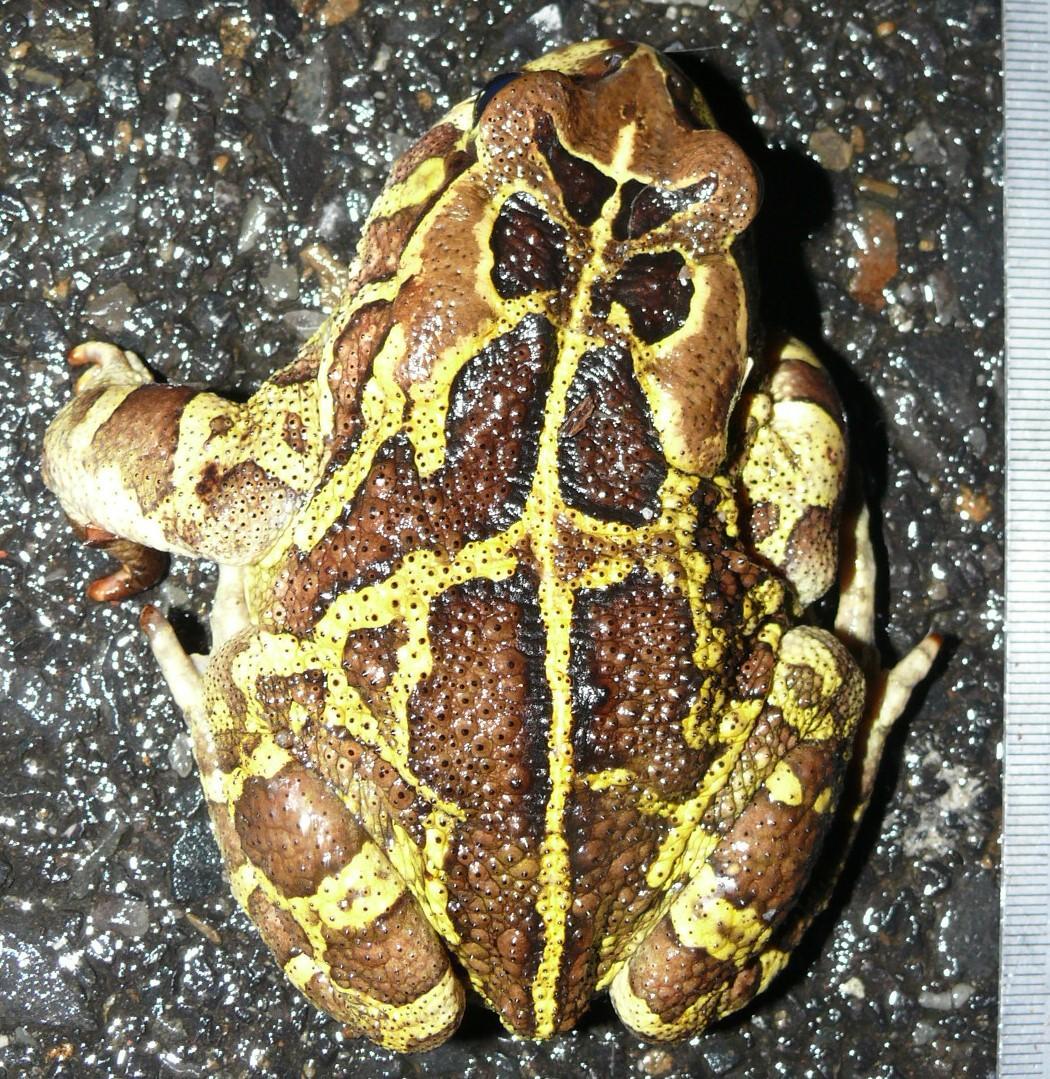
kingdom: Animalia
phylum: Chordata
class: Amphibia
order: Anura
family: Bufonidae
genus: Sclerophrys
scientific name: Sclerophrys pantherina
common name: Panther toad
